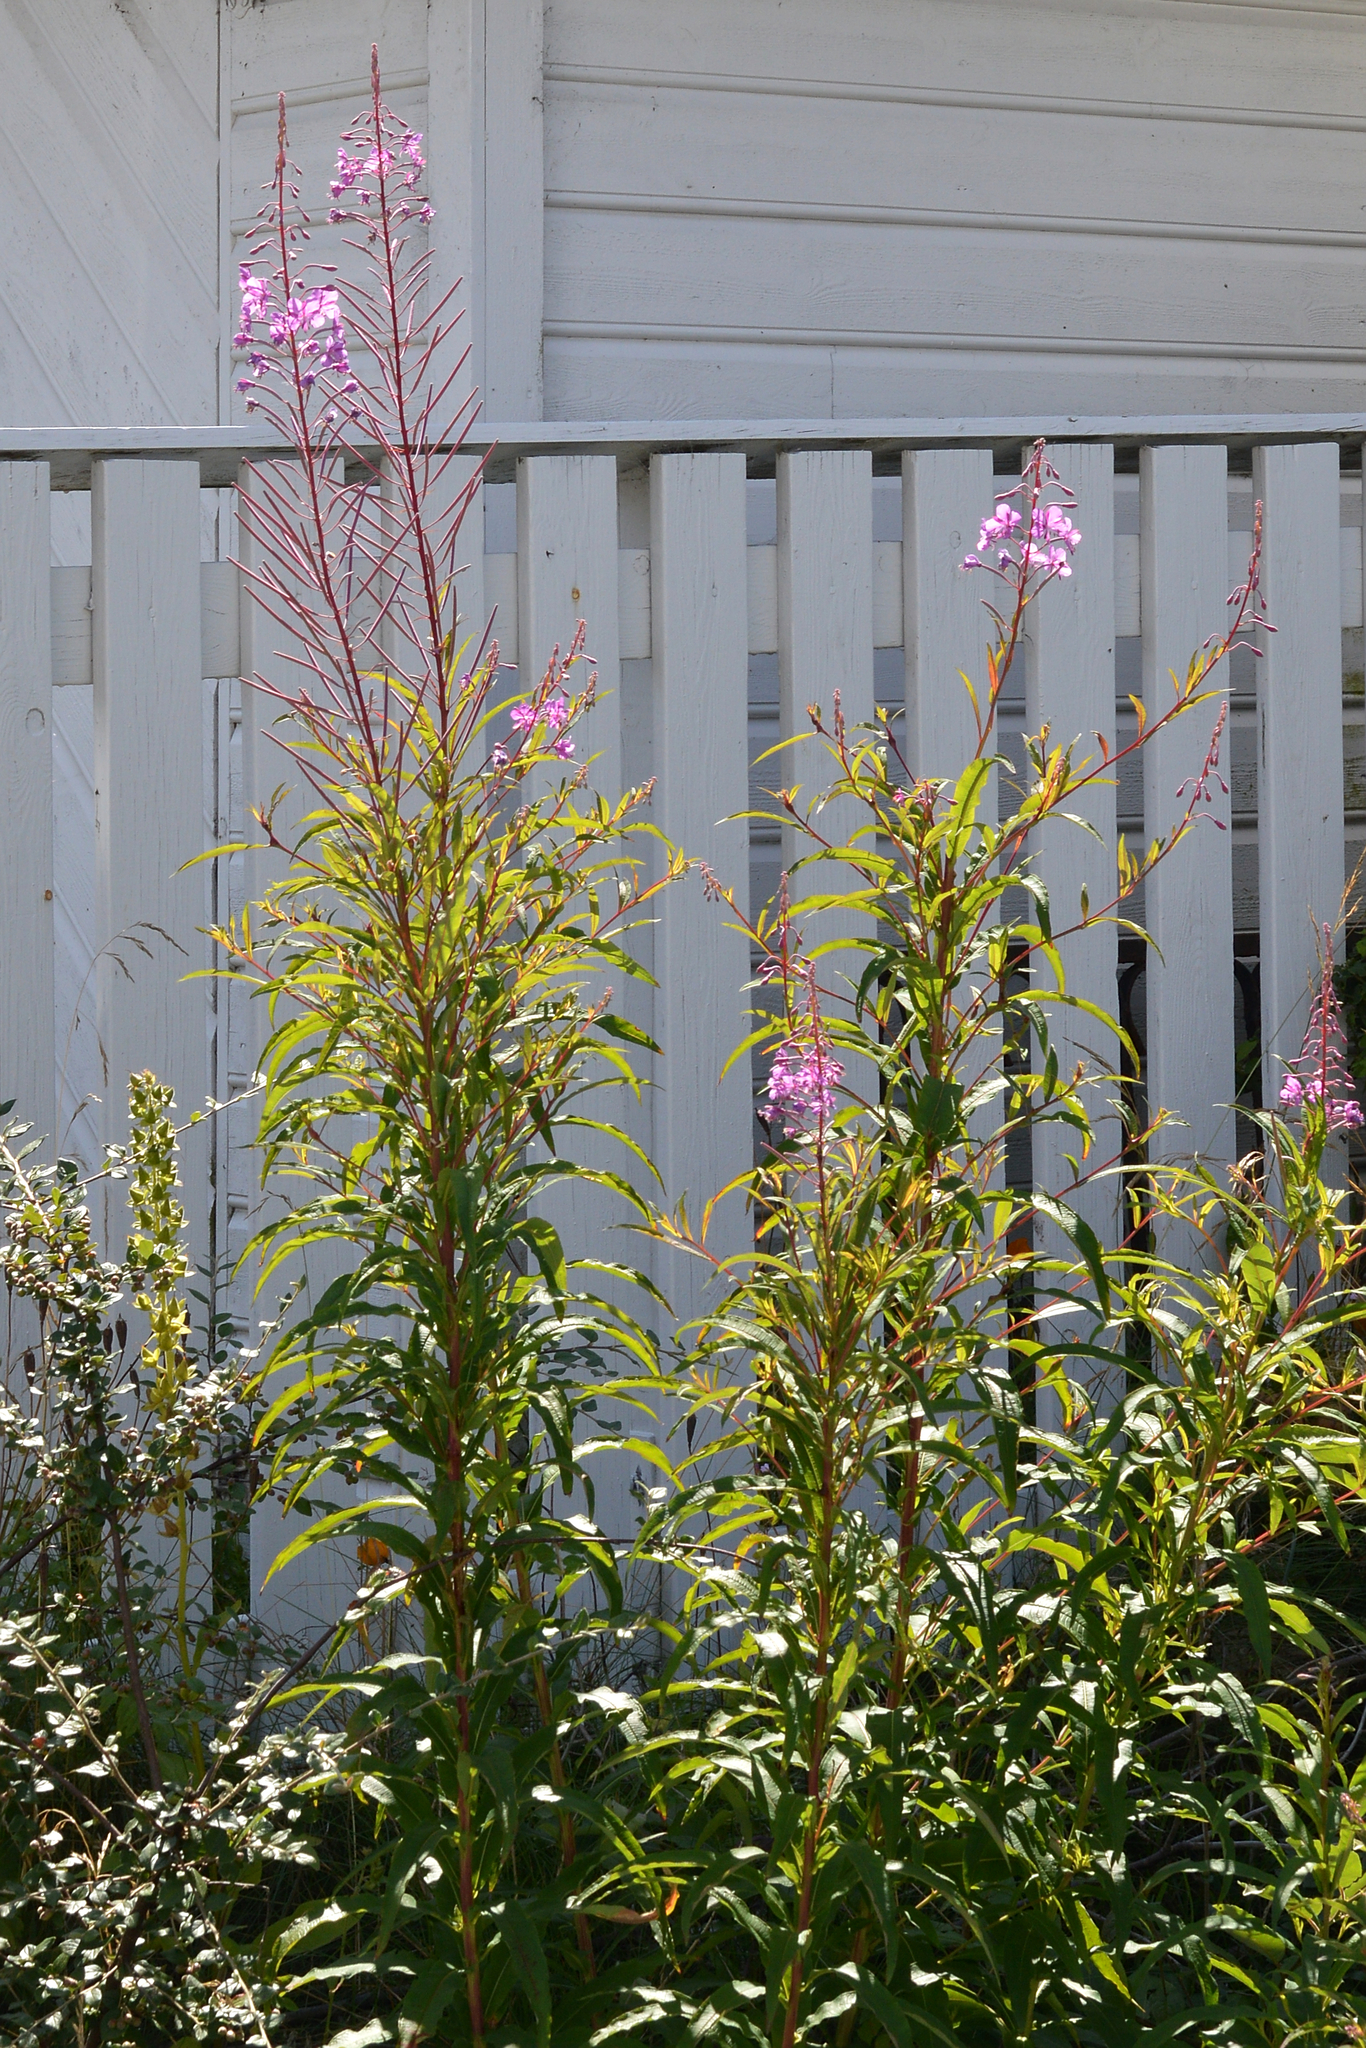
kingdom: Plantae
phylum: Tracheophyta
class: Magnoliopsida
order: Myrtales
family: Onagraceae
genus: Chamaenerion
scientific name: Chamaenerion angustifolium
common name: Fireweed
